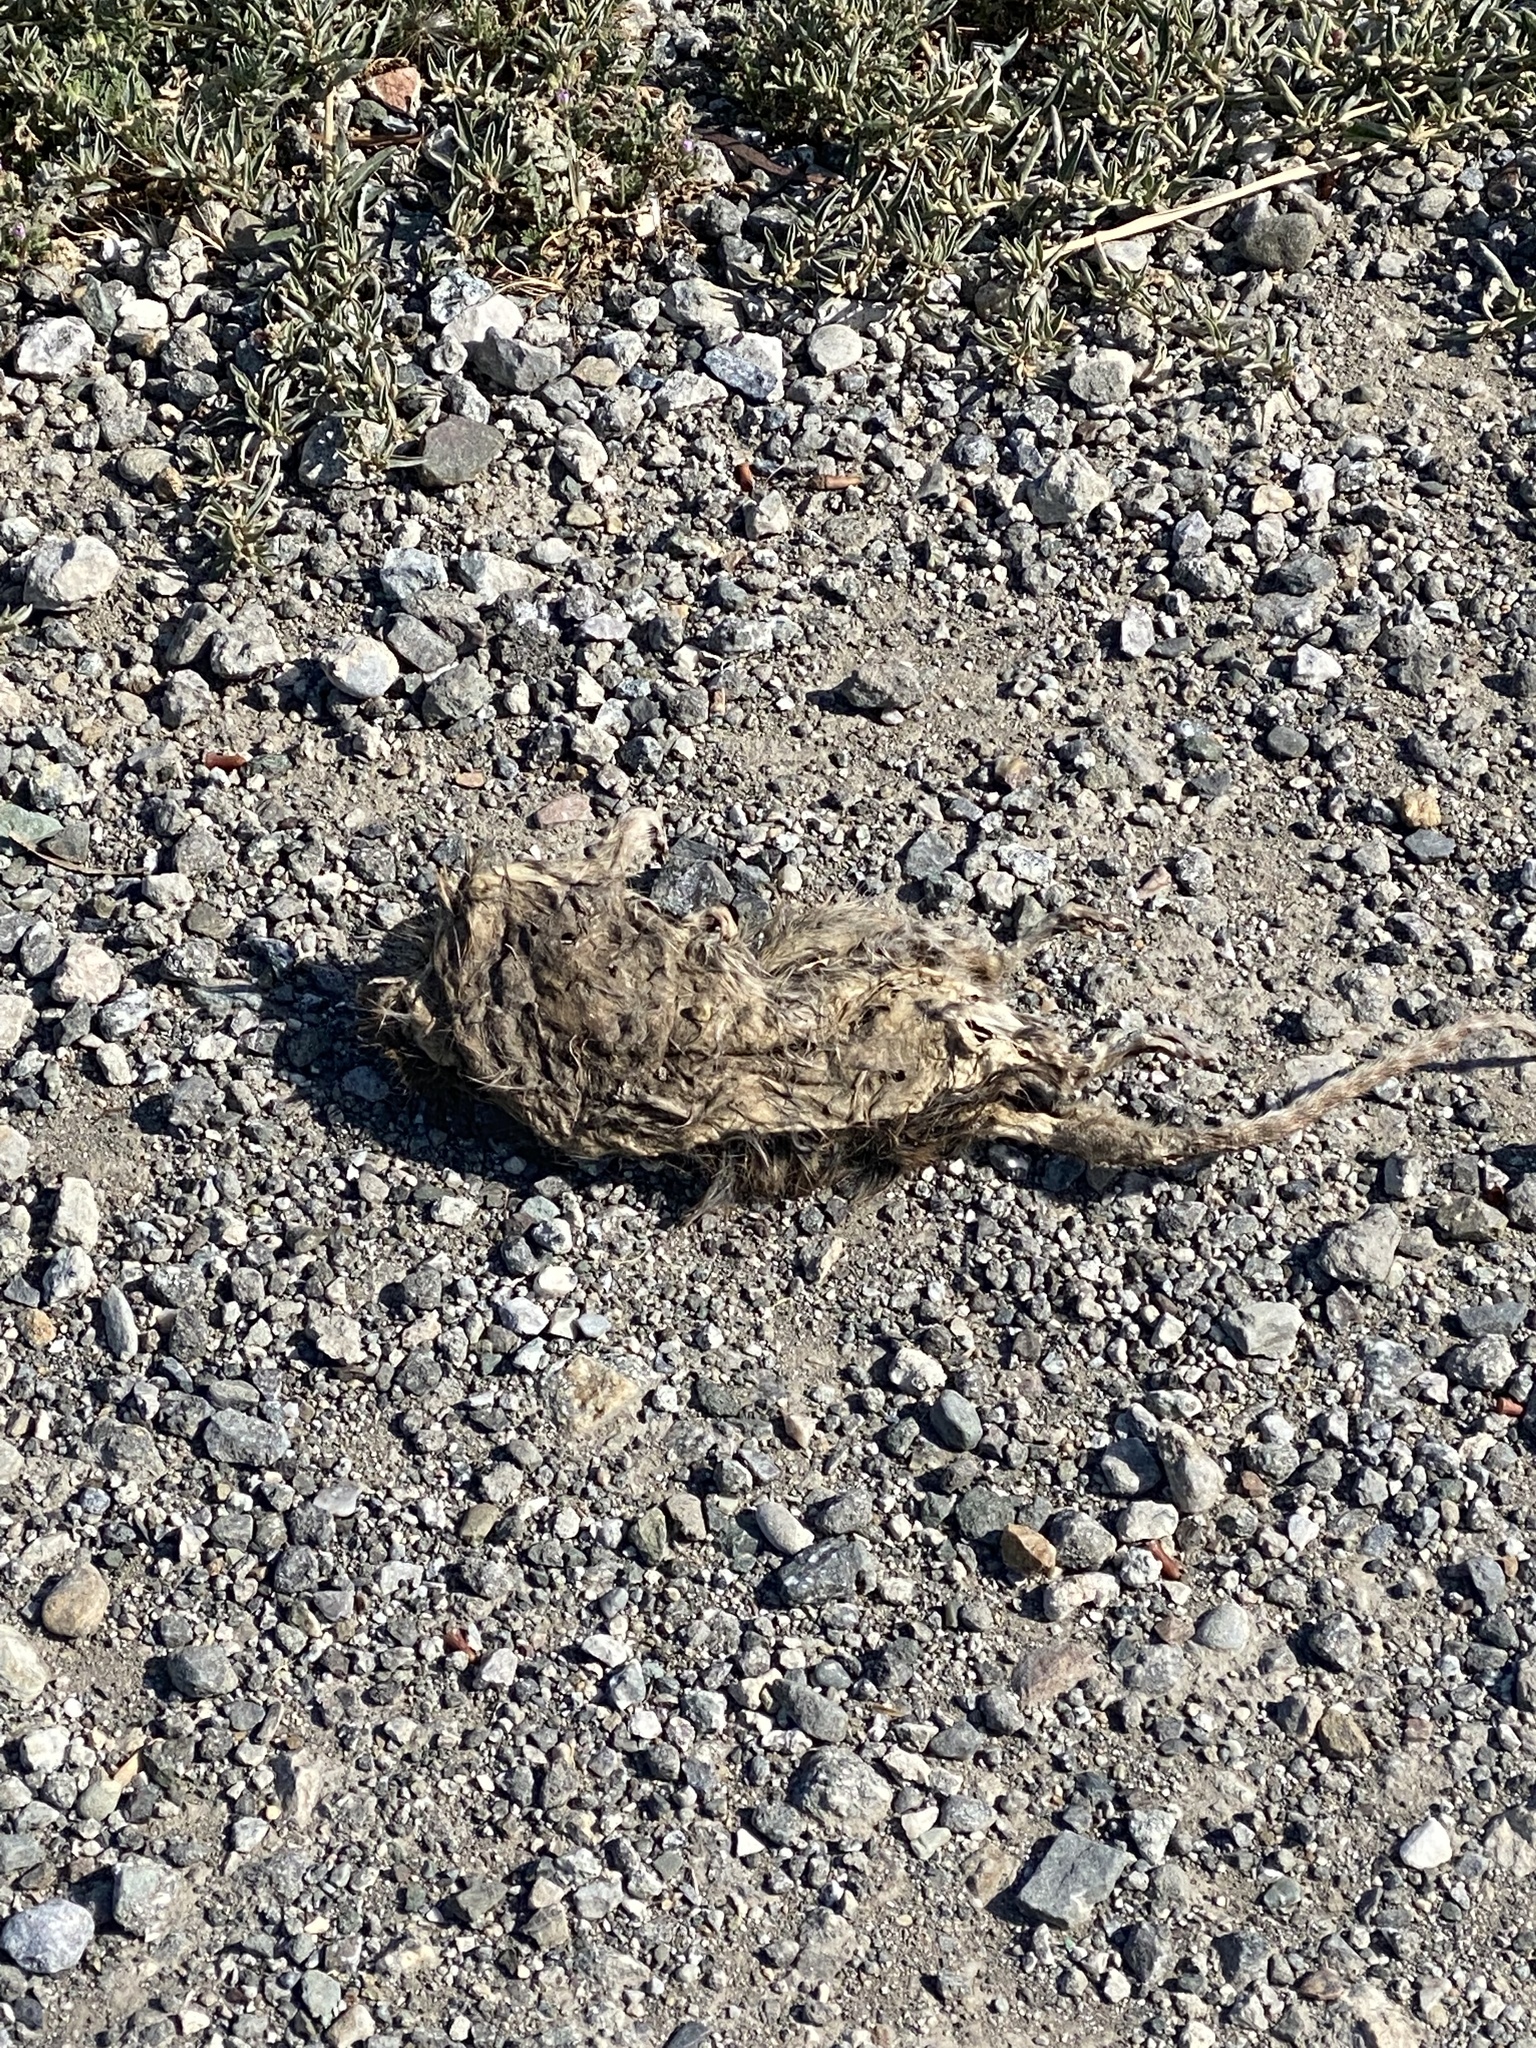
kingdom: Animalia
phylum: Chordata
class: Mammalia
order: Rodentia
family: Cricetidae
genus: Neotoma
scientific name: Neotoma fuscipes
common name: Dusky-footed woodrat
